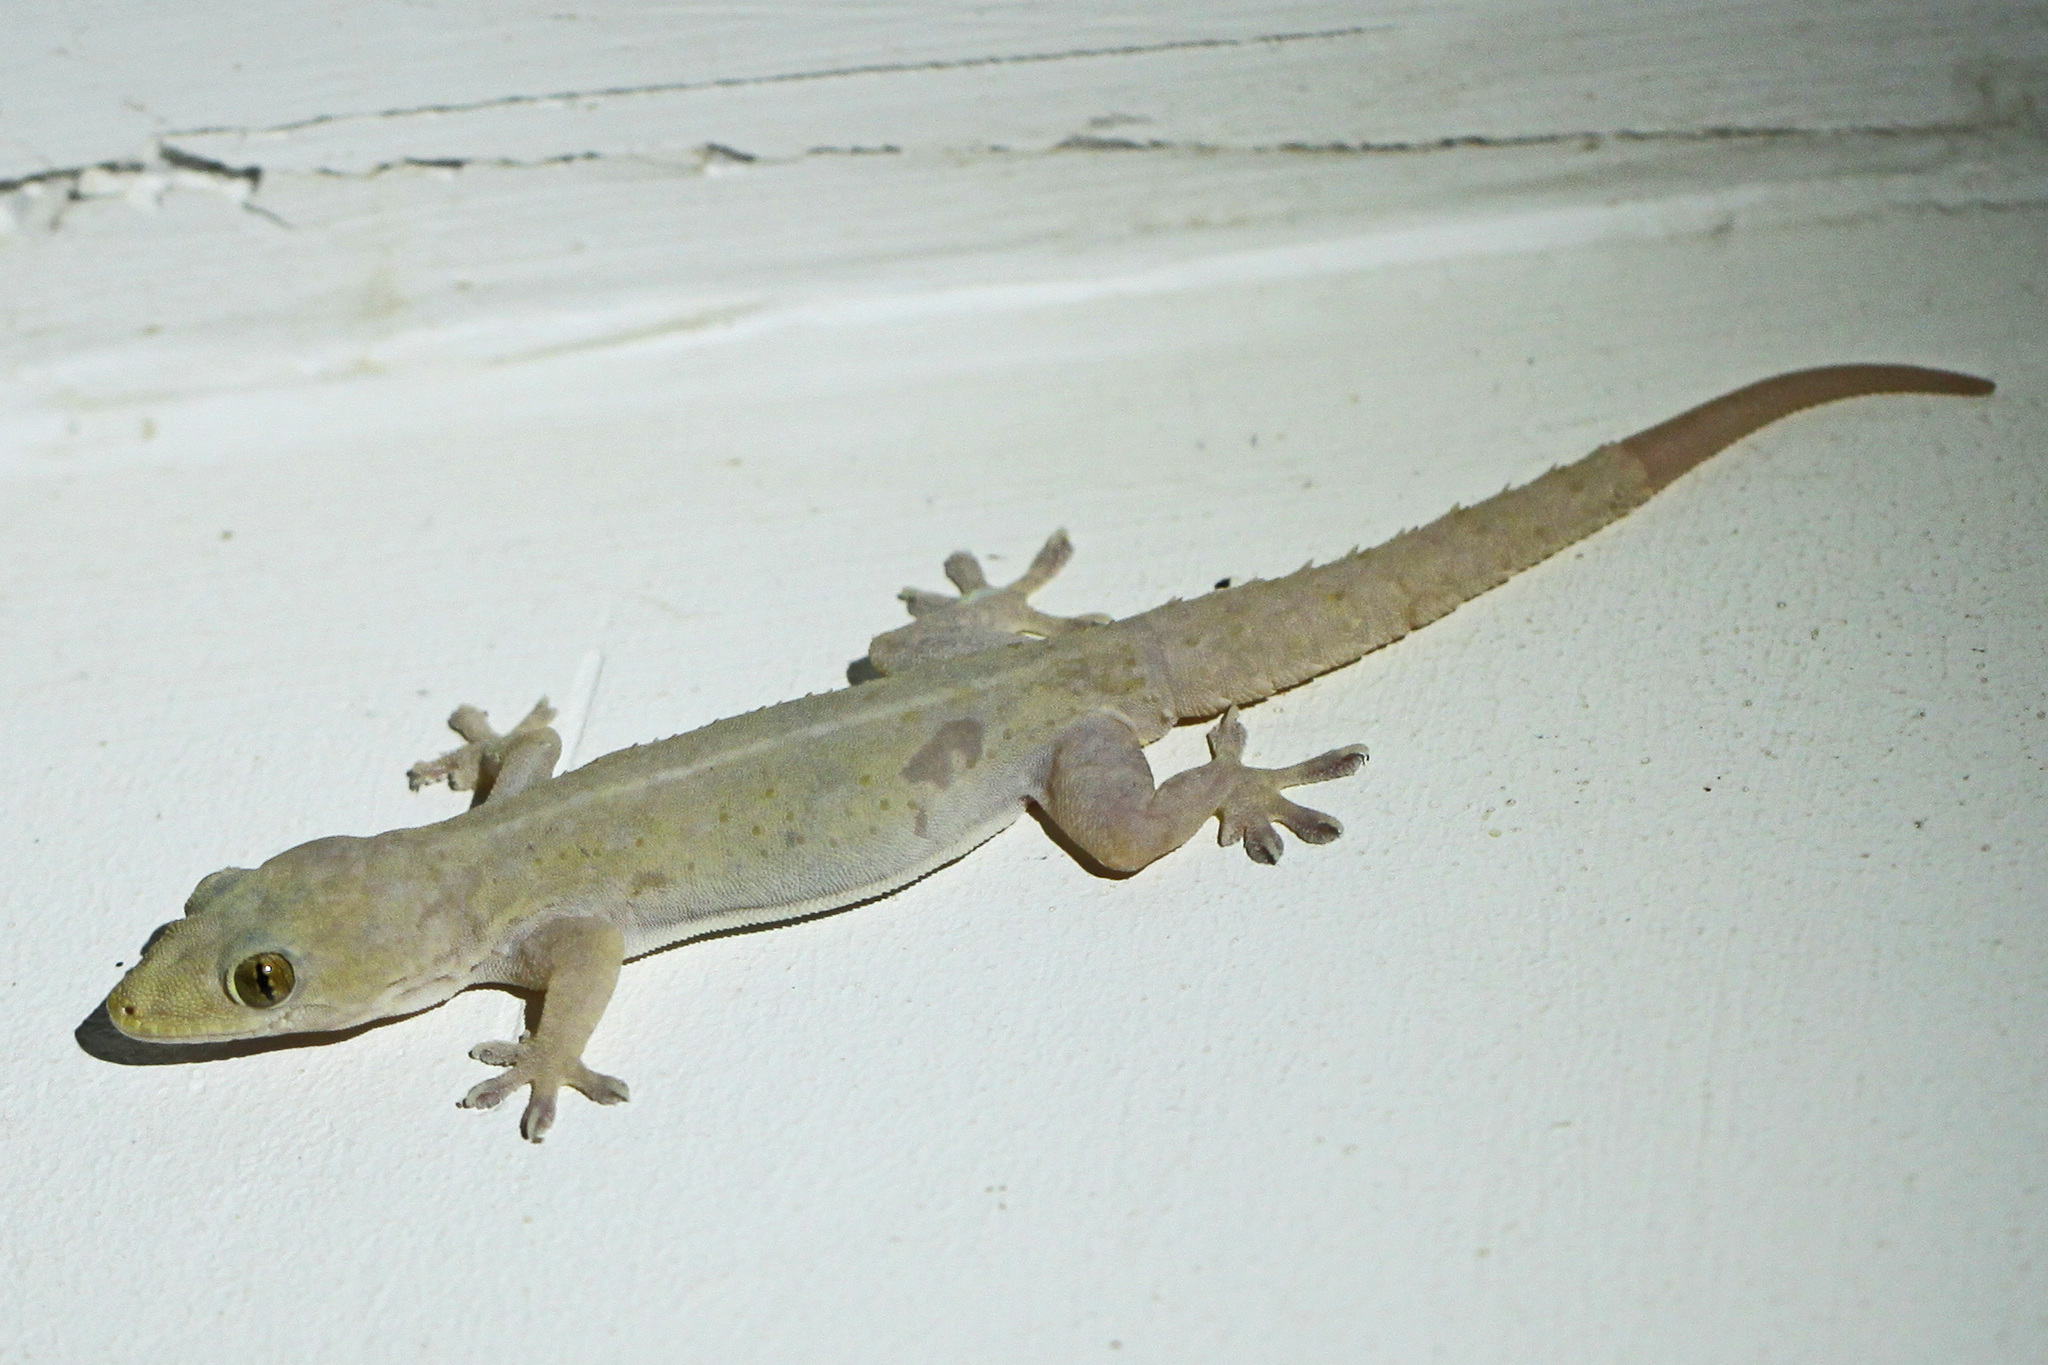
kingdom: Animalia
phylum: Chordata
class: Squamata
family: Gekkonidae
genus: Hemidactylus
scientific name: Hemidactylus frenatus
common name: Common house gecko
